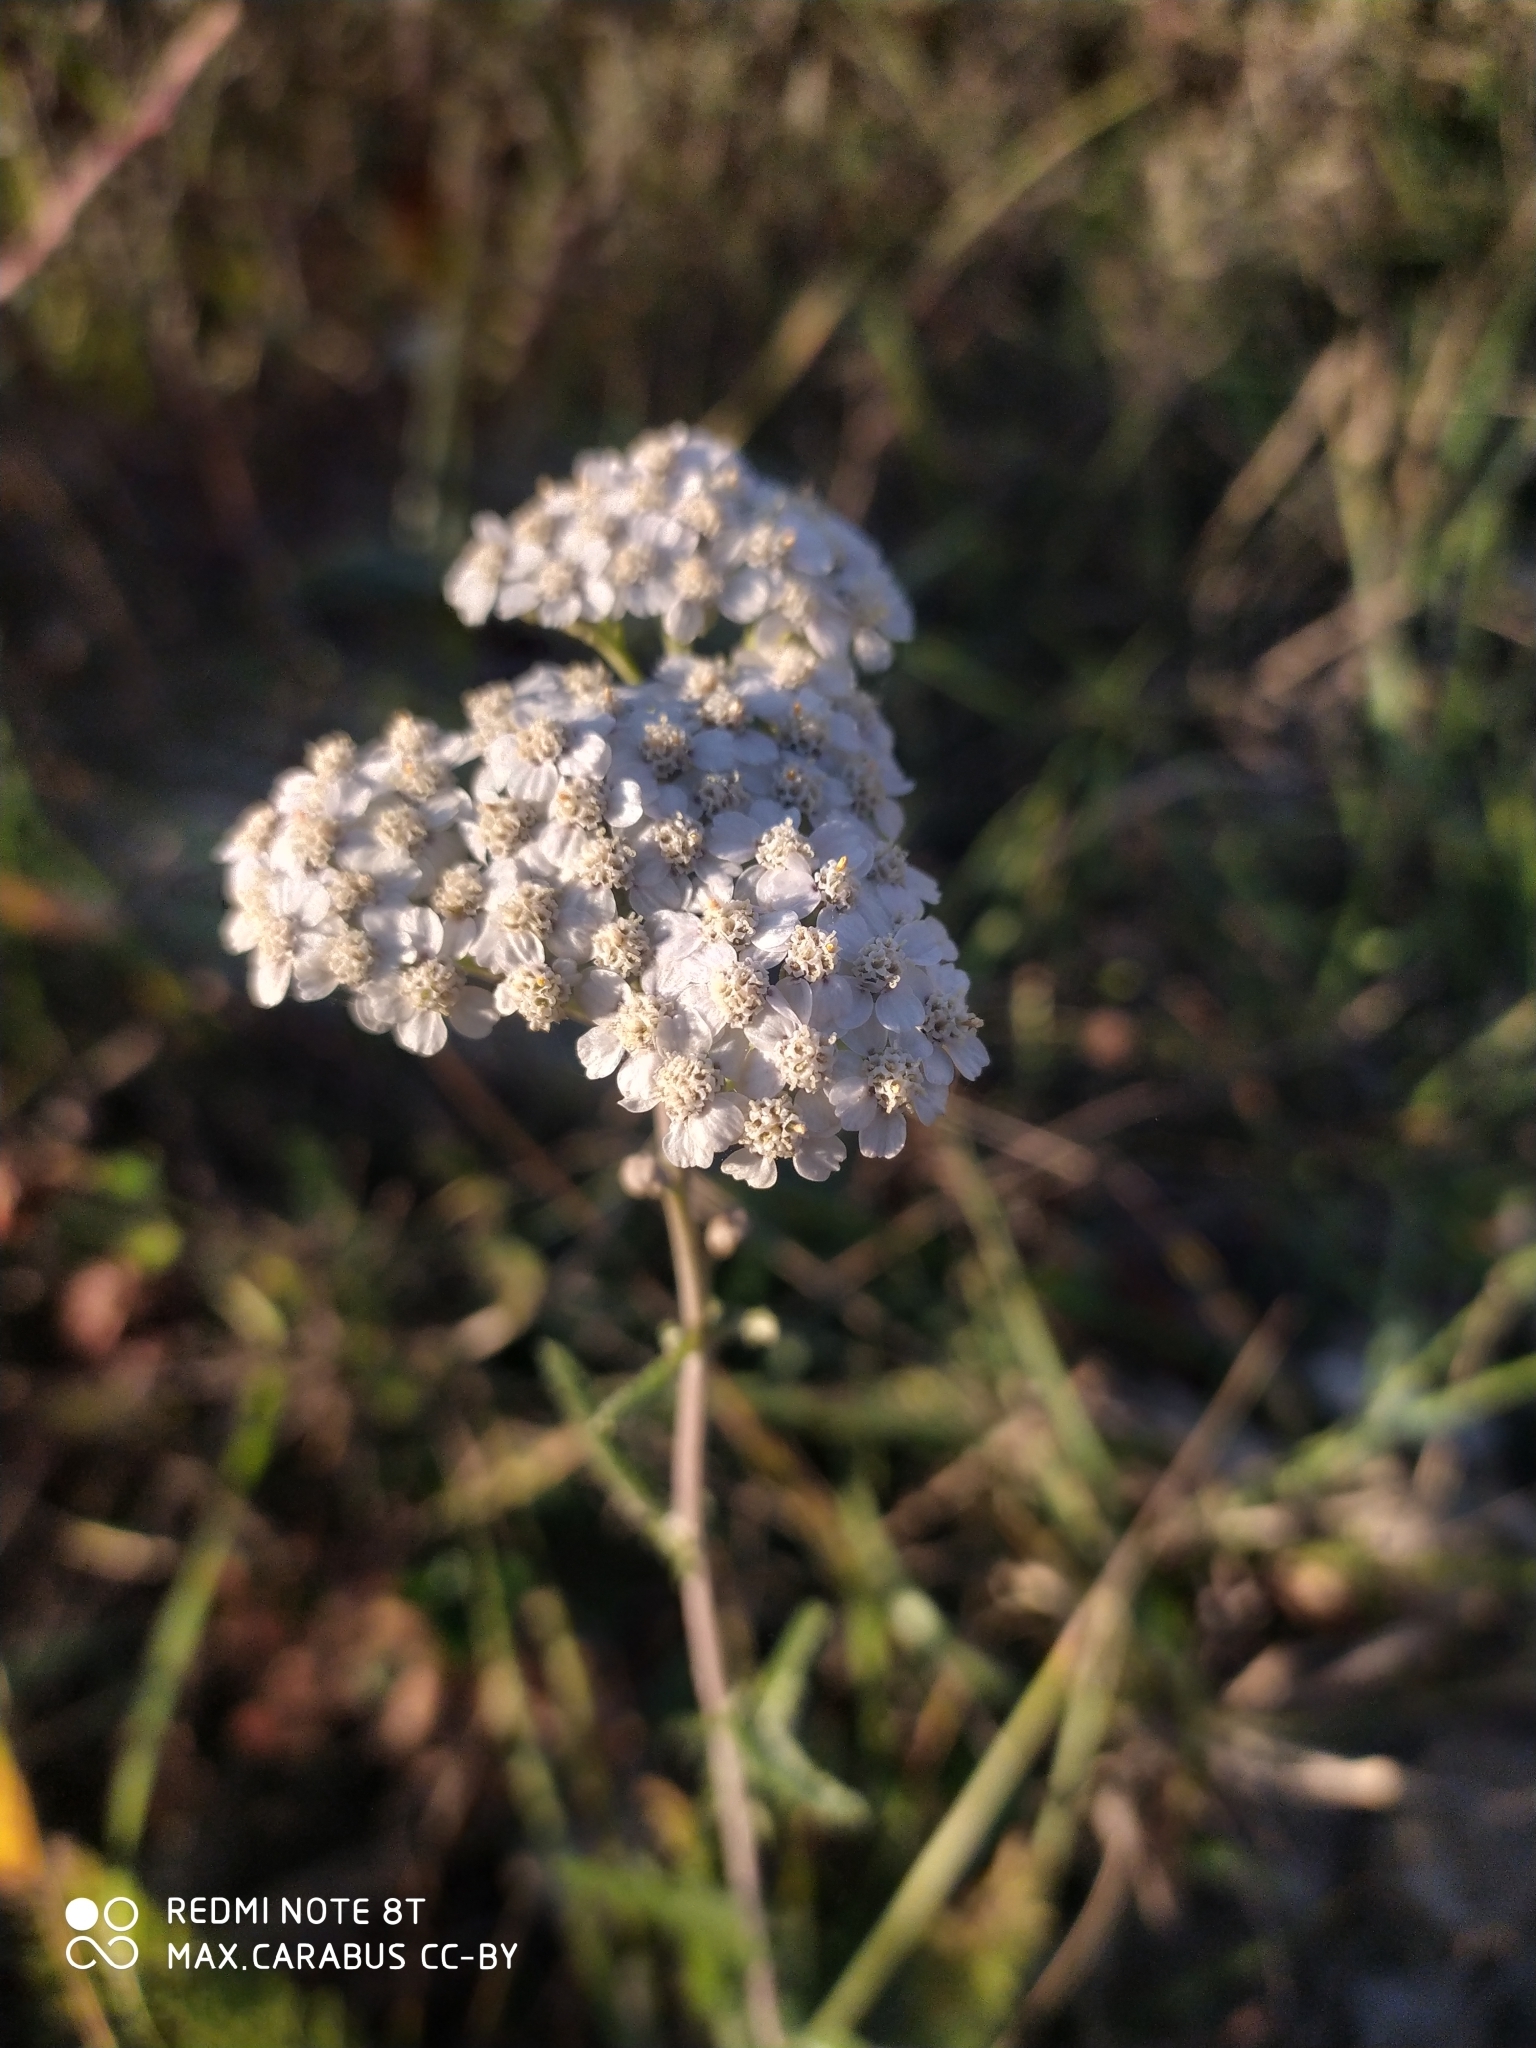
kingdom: Plantae
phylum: Tracheophyta
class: Magnoliopsida
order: Asterales
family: Asteraceae
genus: Achillea
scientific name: Achillea millefolium
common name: Yarrow
